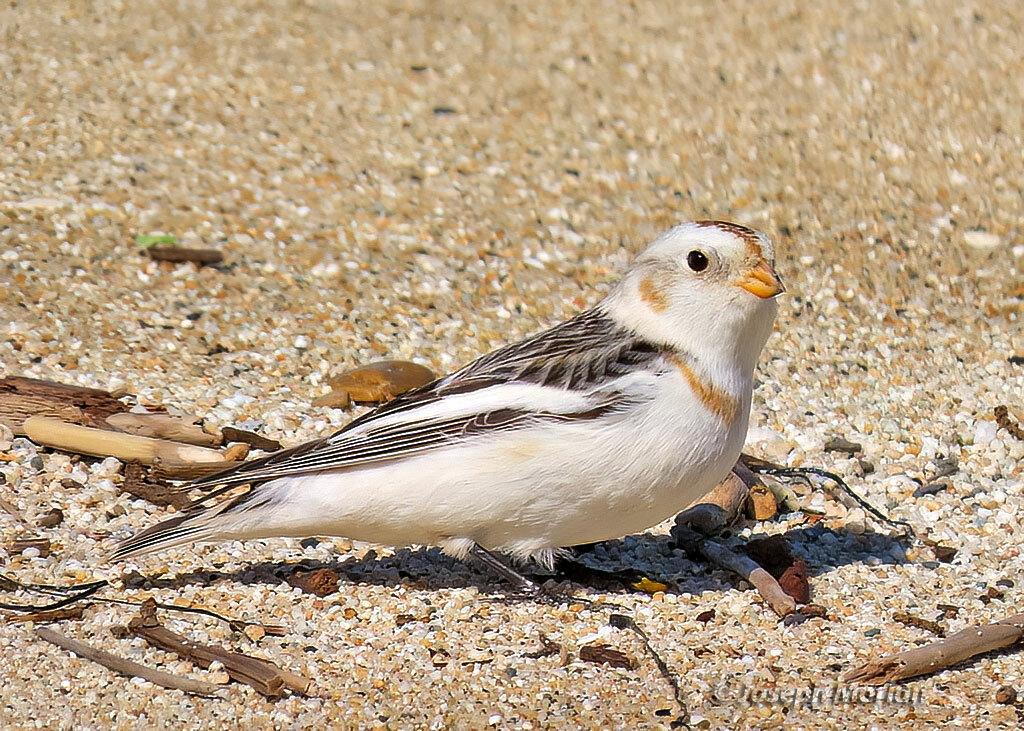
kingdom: Animalia
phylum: Chordata
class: Aves
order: Passeriformes
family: Calcariidae
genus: Plectrophenax
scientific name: Plectrophenax nivalis
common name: Snow bunting
